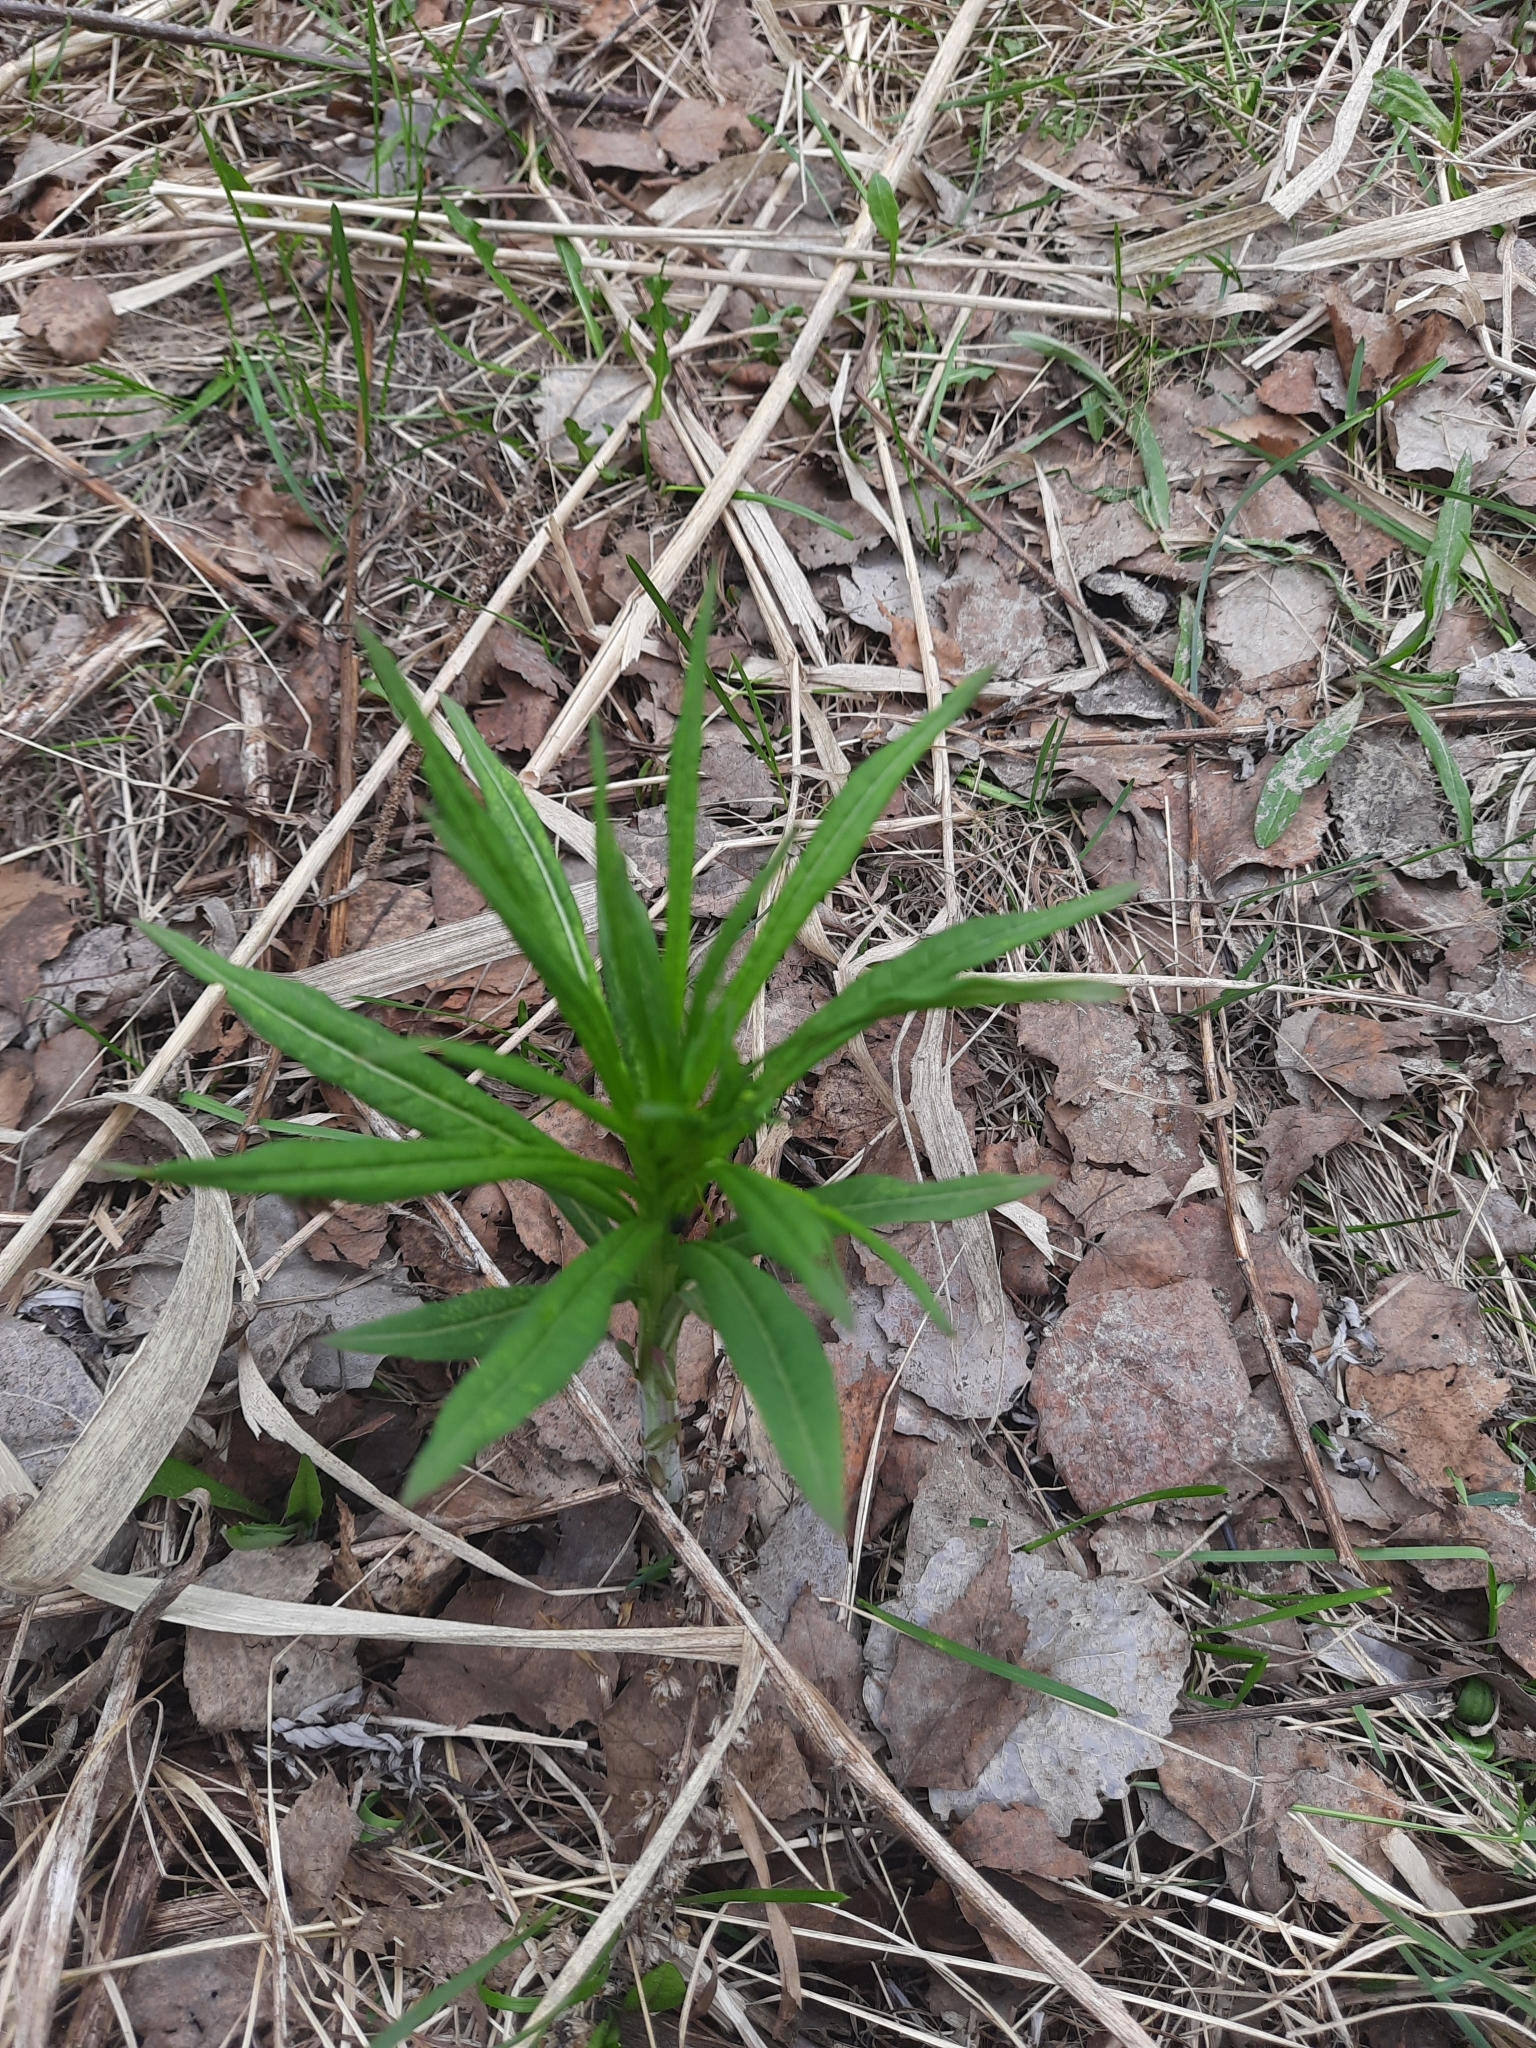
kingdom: Plantae
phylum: Tracheophyta
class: Magnoliopsida
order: Myrtales
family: Onagraceae
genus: Chamaenerion
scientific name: Chamaenerion angustifolium
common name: Fireweed
